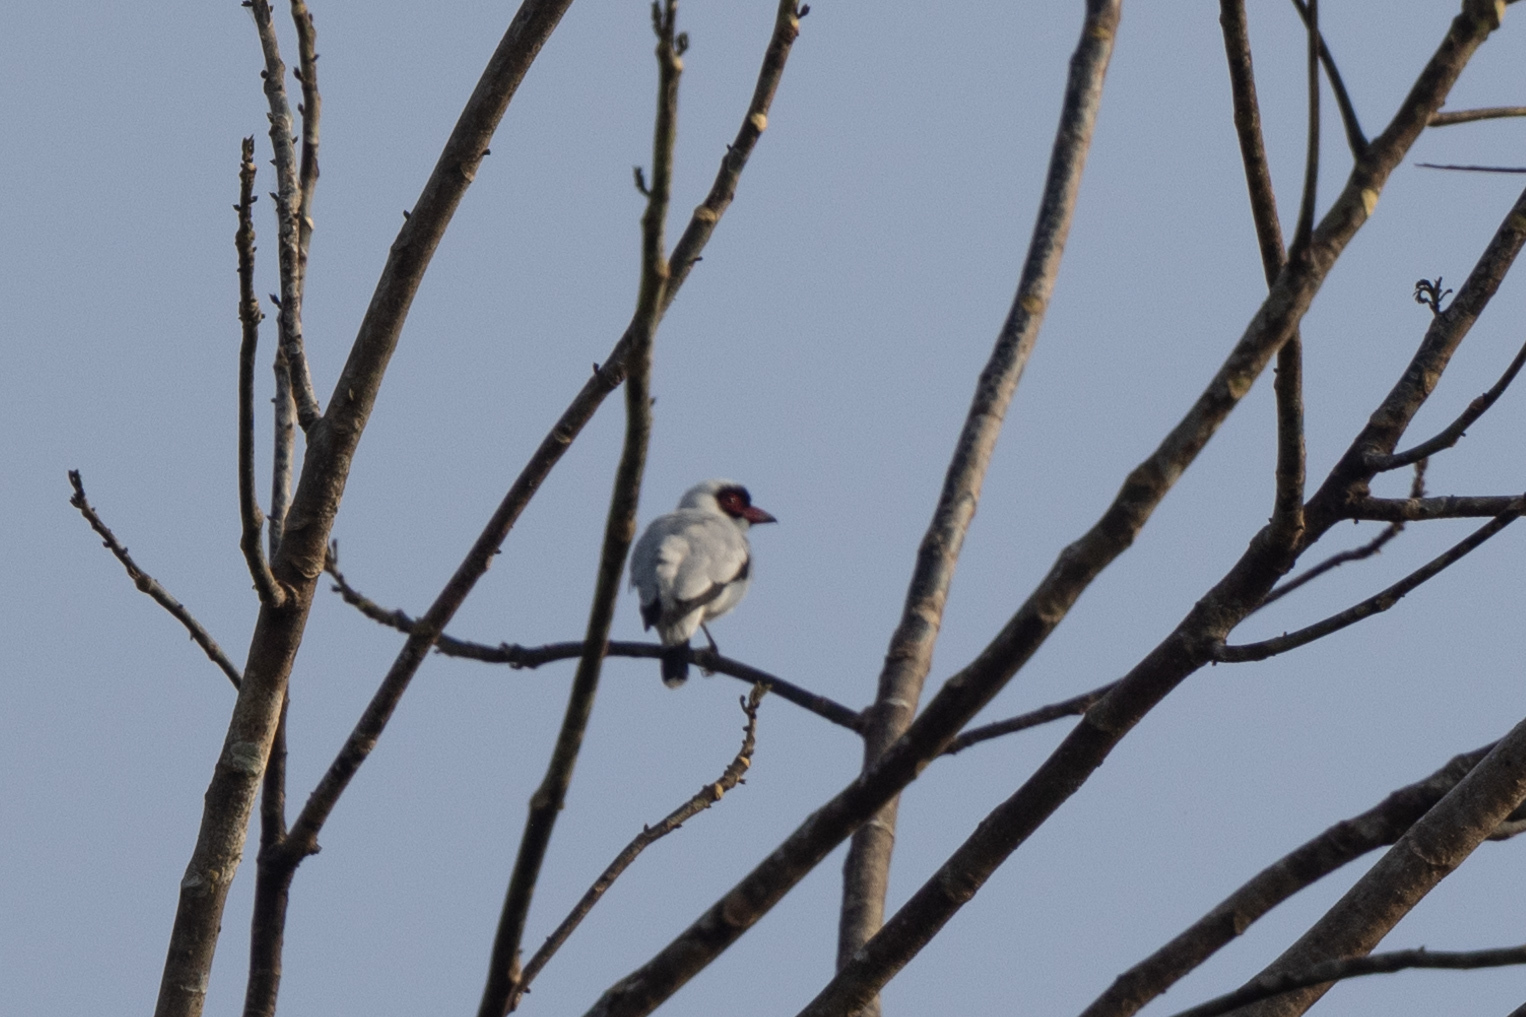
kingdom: Animalia
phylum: Chordata
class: Aves
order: Passeriformes
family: Cotingidae
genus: Tityra
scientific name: Tityra semifasciata
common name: Masked tityra
